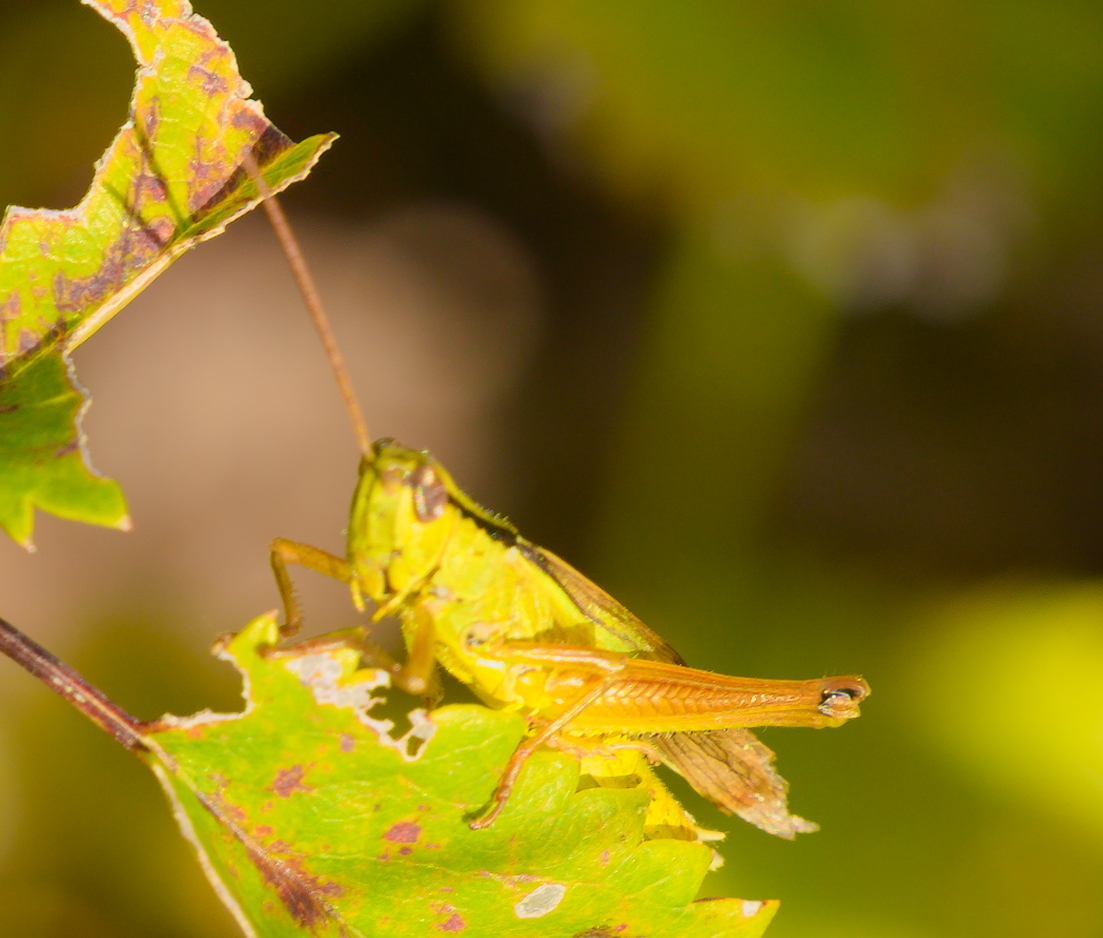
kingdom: Animalia
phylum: Arthropoda
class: Insecta
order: Orthoptera
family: Acrididae
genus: Mecostethus
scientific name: Mecostethus parapleurus
